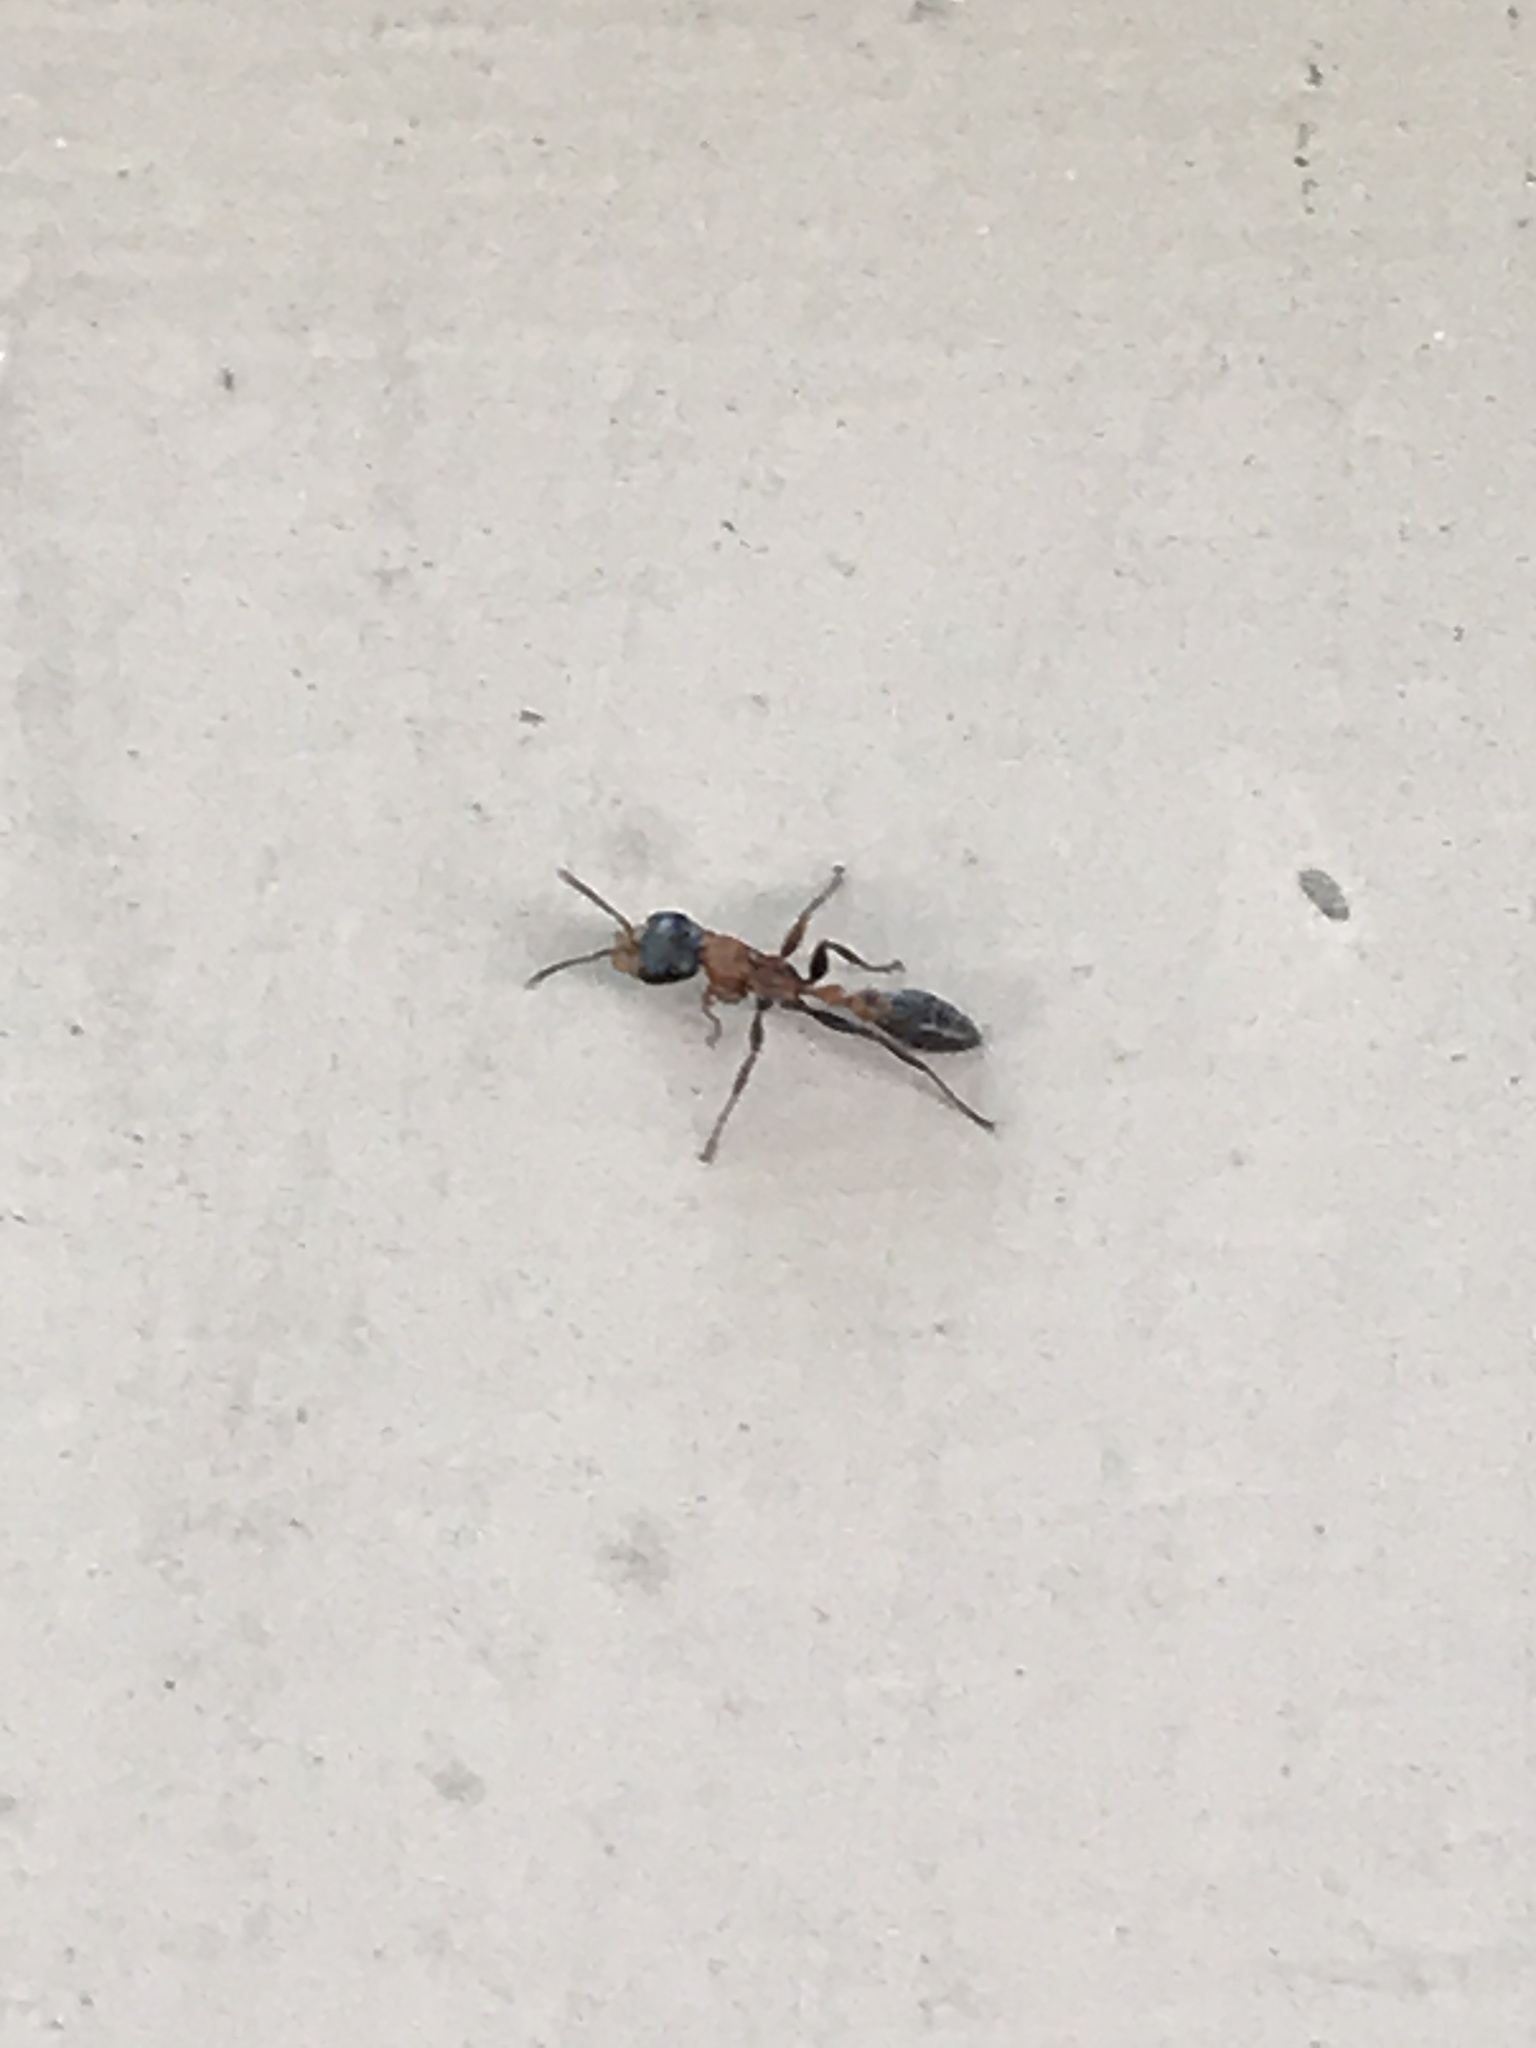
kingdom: Animalia
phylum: Arthropoda
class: Insecta
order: Hymenoptera
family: Formicidae
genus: Pseudomyrmex
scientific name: Pseudomyrmex gracilis
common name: Graceful twig ant
